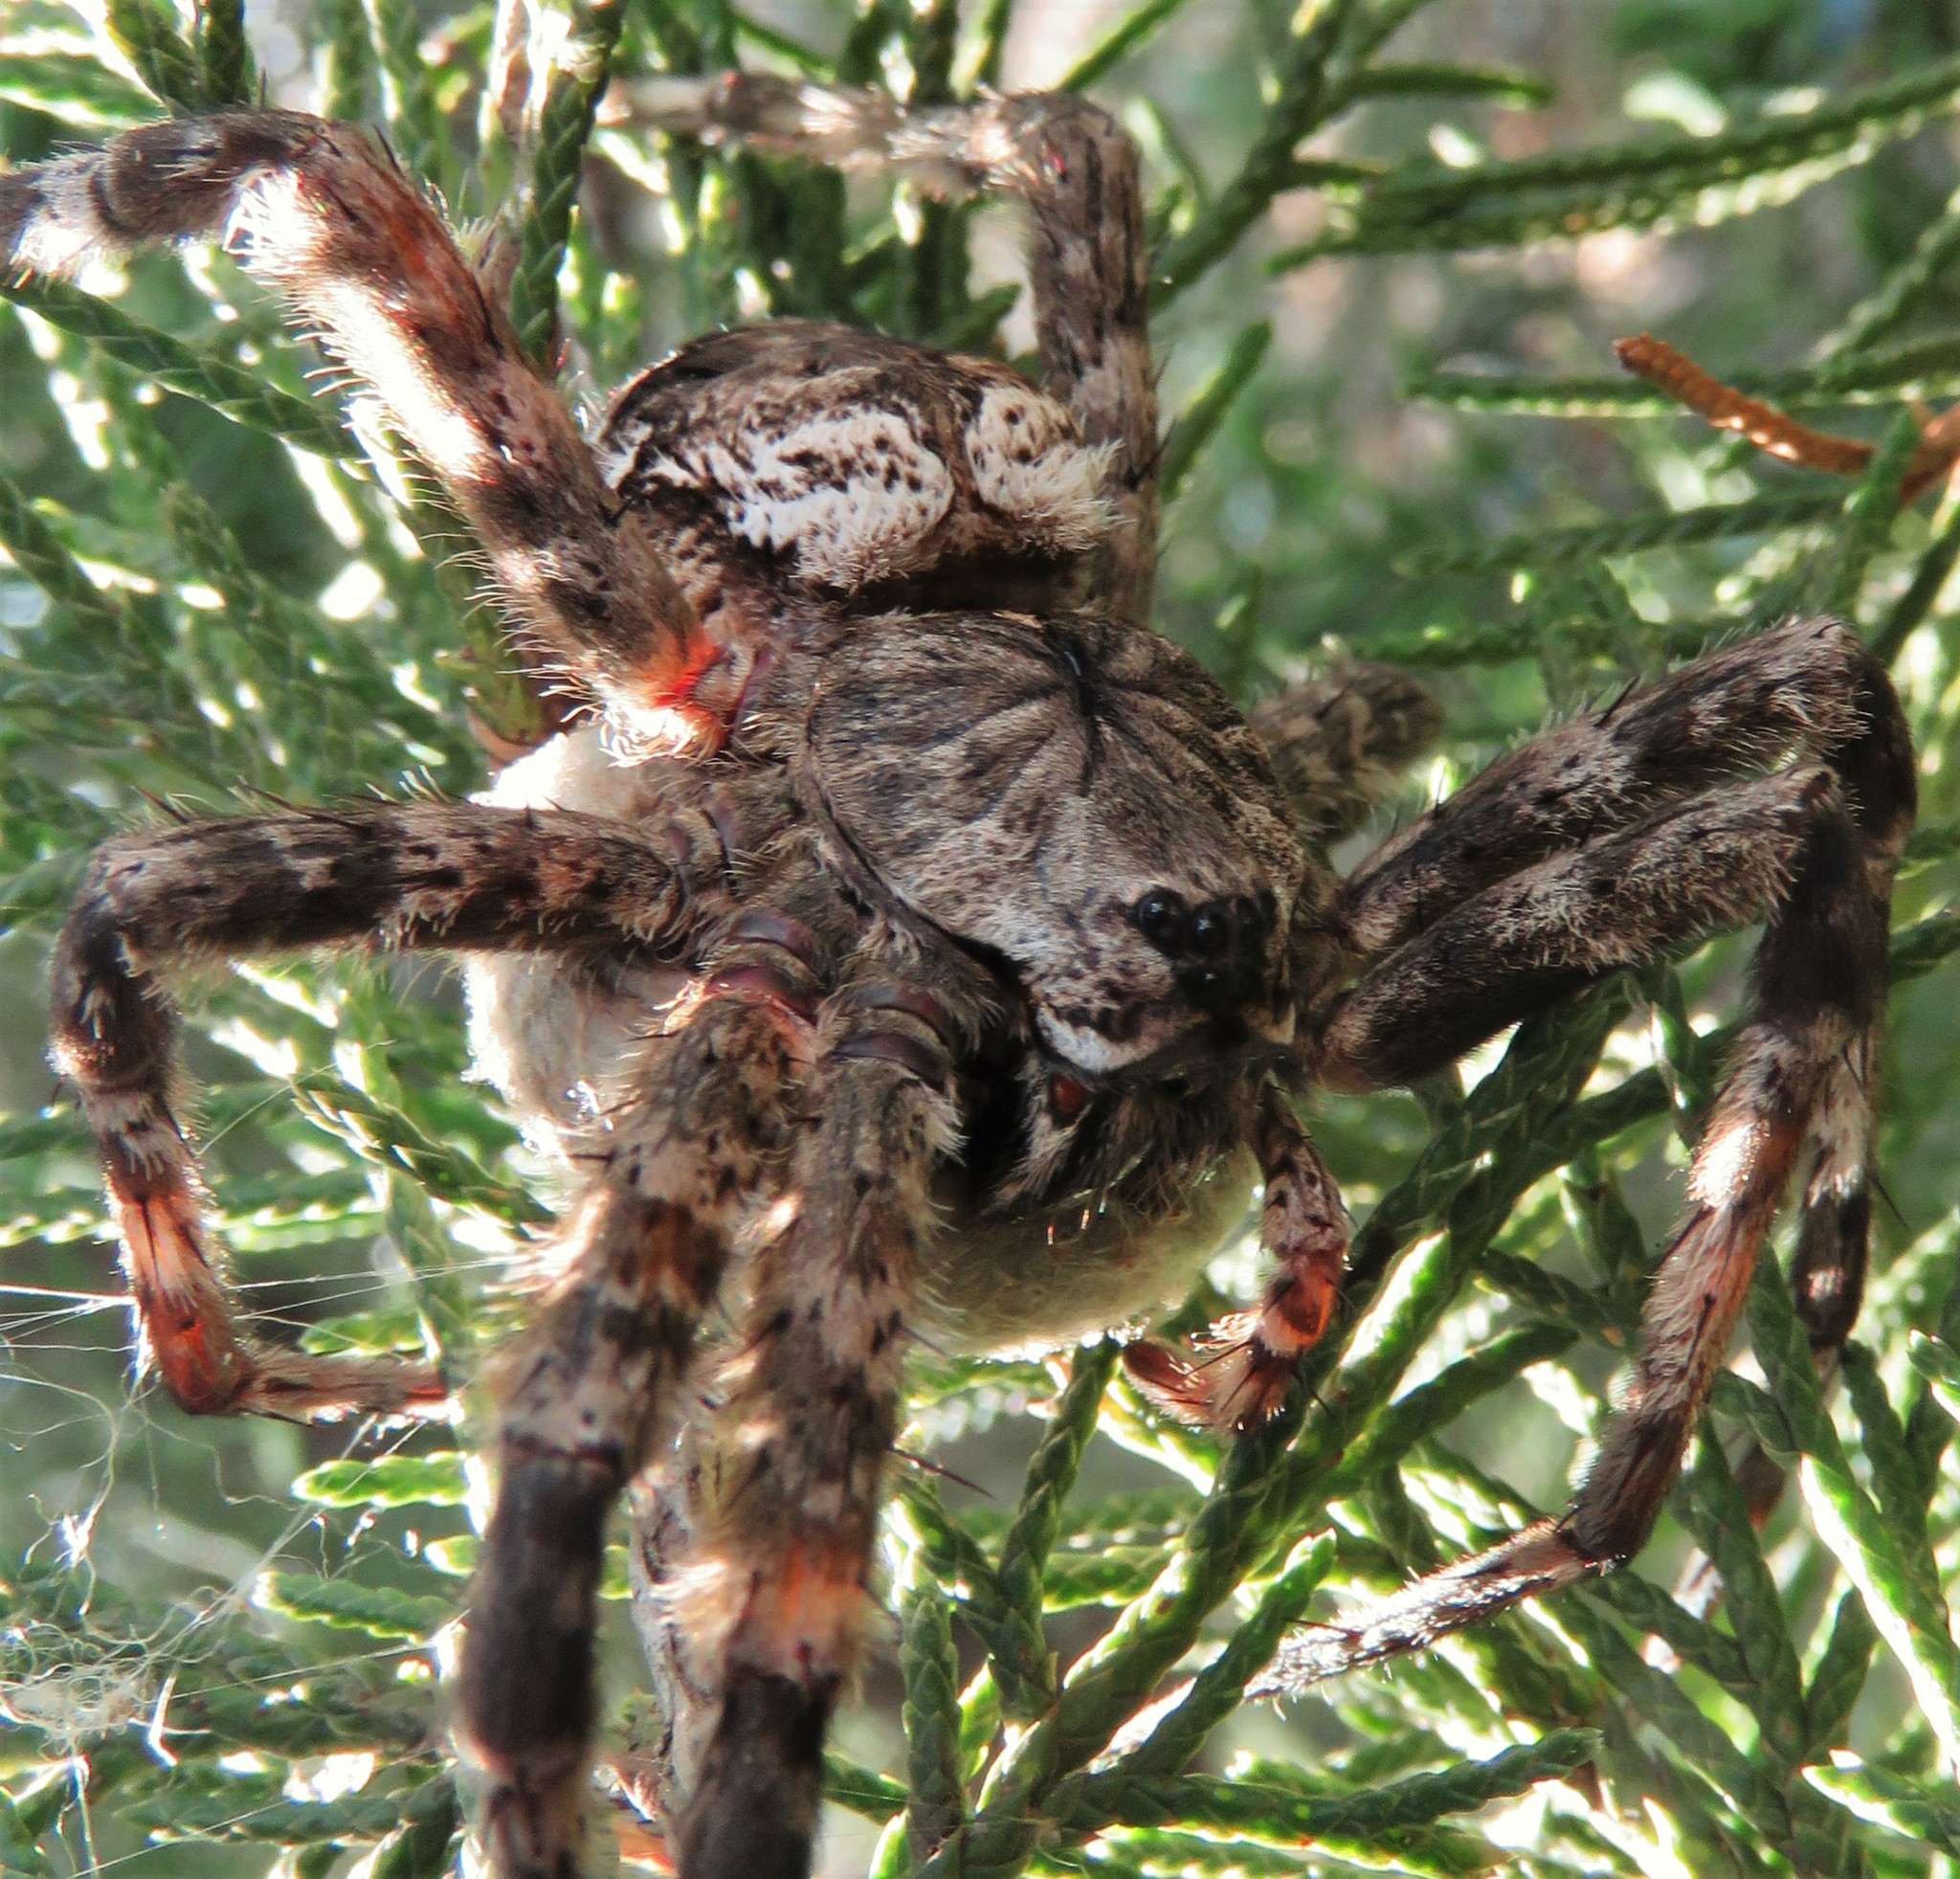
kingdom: Animalia
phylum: Arthropoda
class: Arachnida
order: Araneae
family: Pisauridae
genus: Dolomedes
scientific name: Dolomedes albineus
